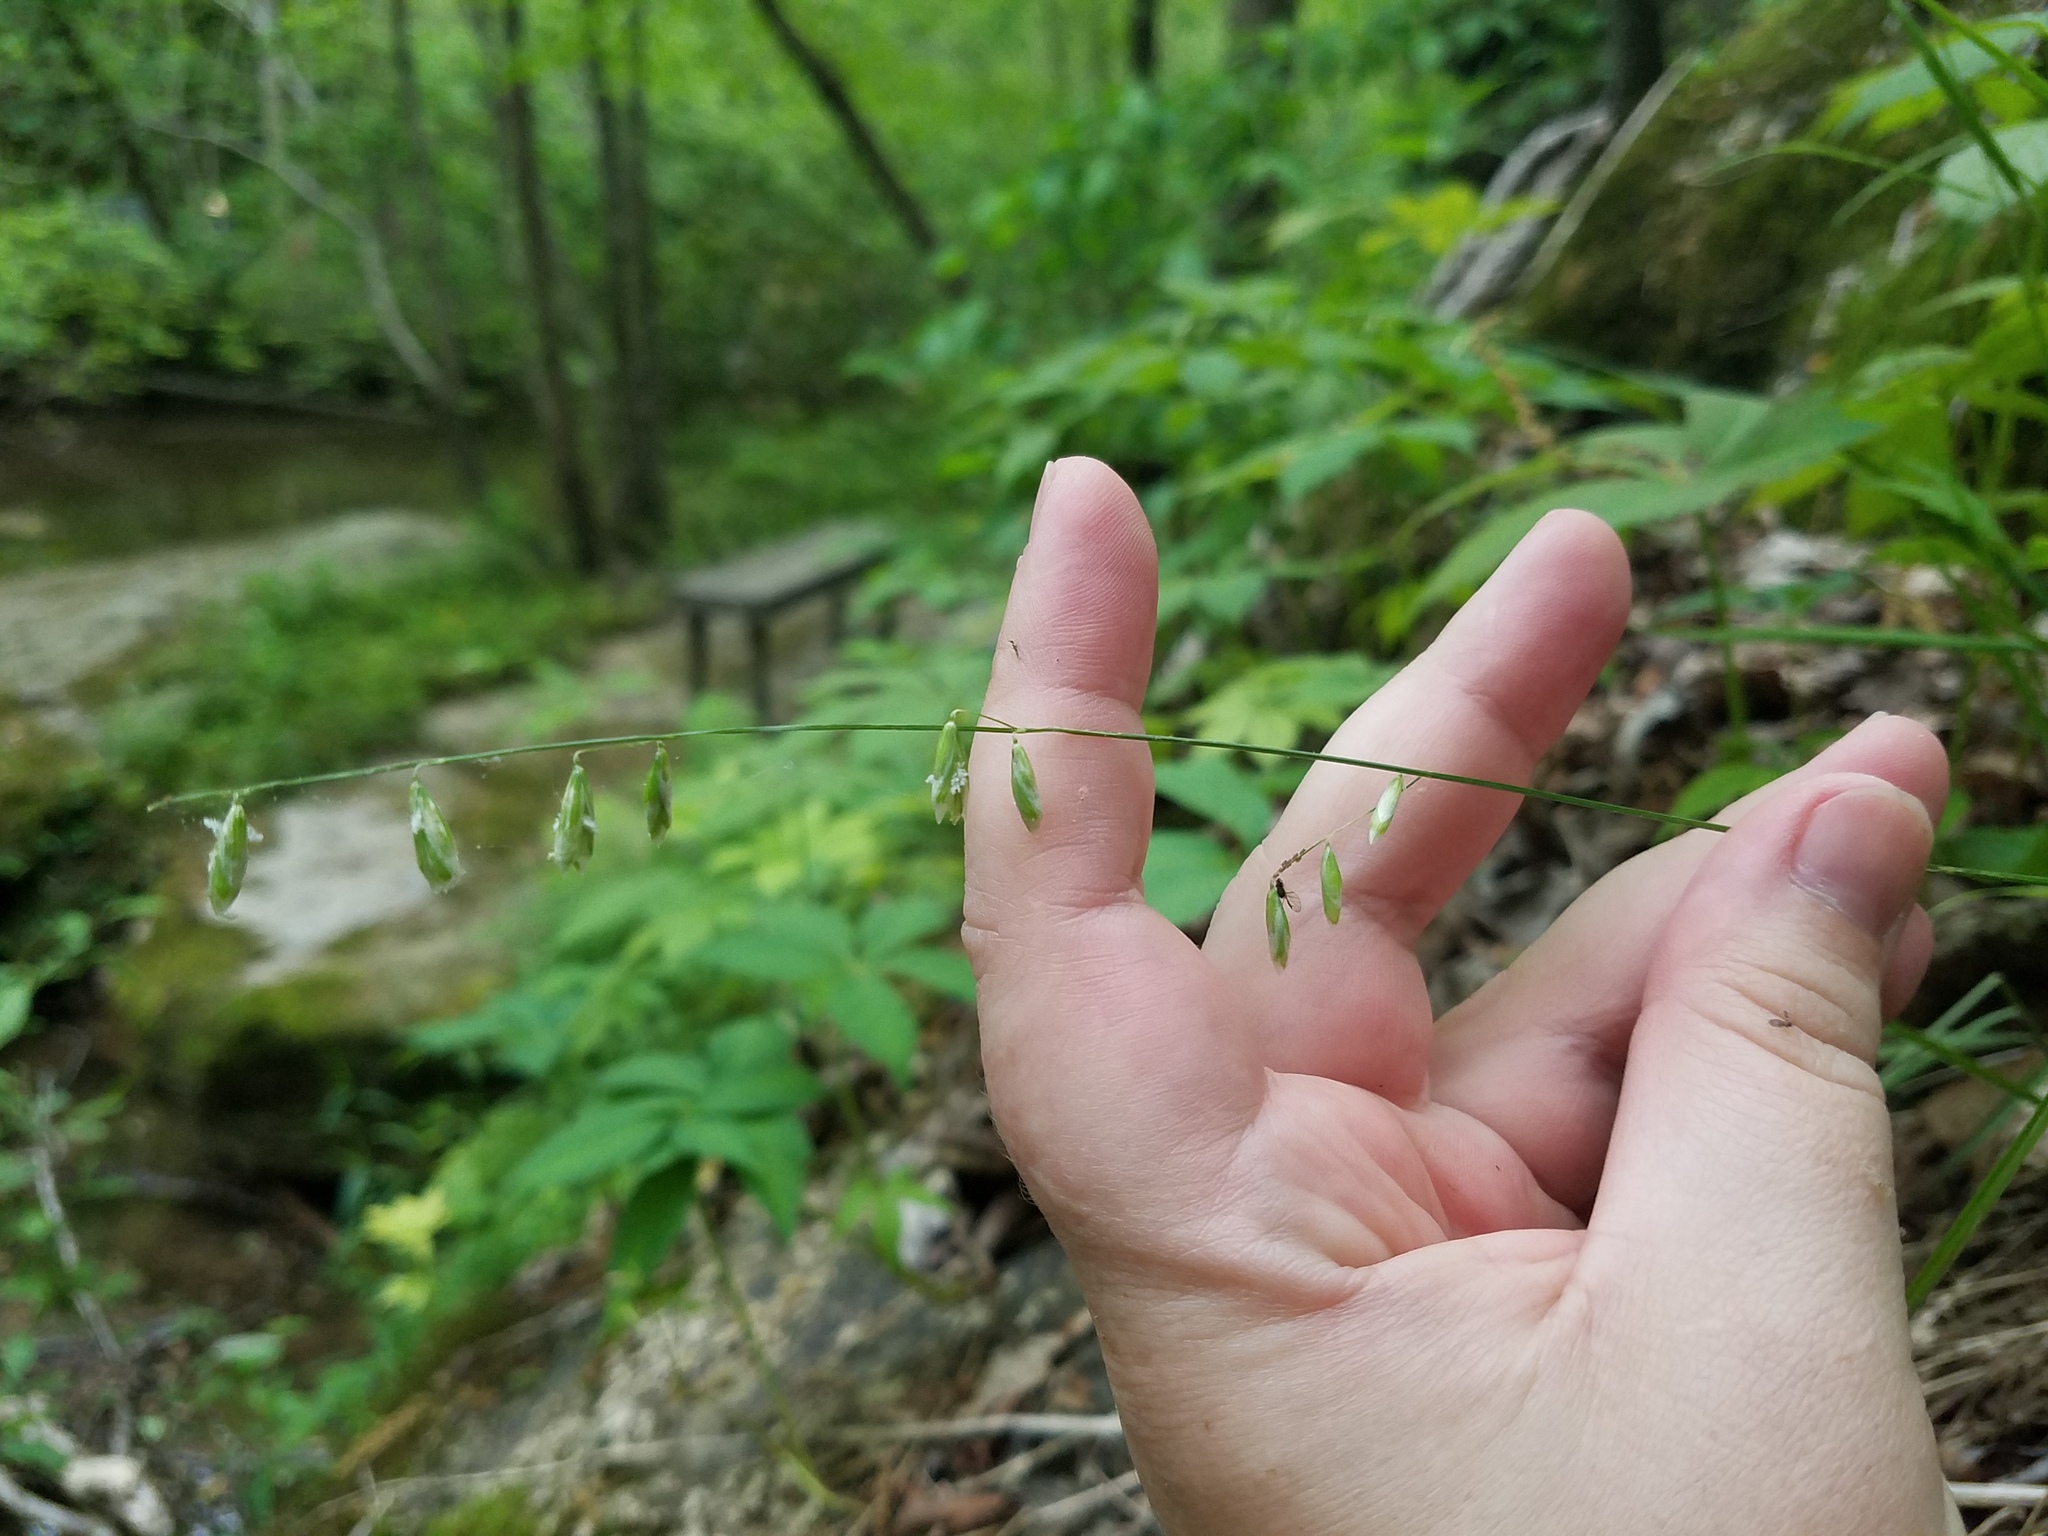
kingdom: Plantae
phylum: Tracheophyta
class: Liliopsida
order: Poales
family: Poaceae
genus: Melica
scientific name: Melica mutica
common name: Two-flower melic
